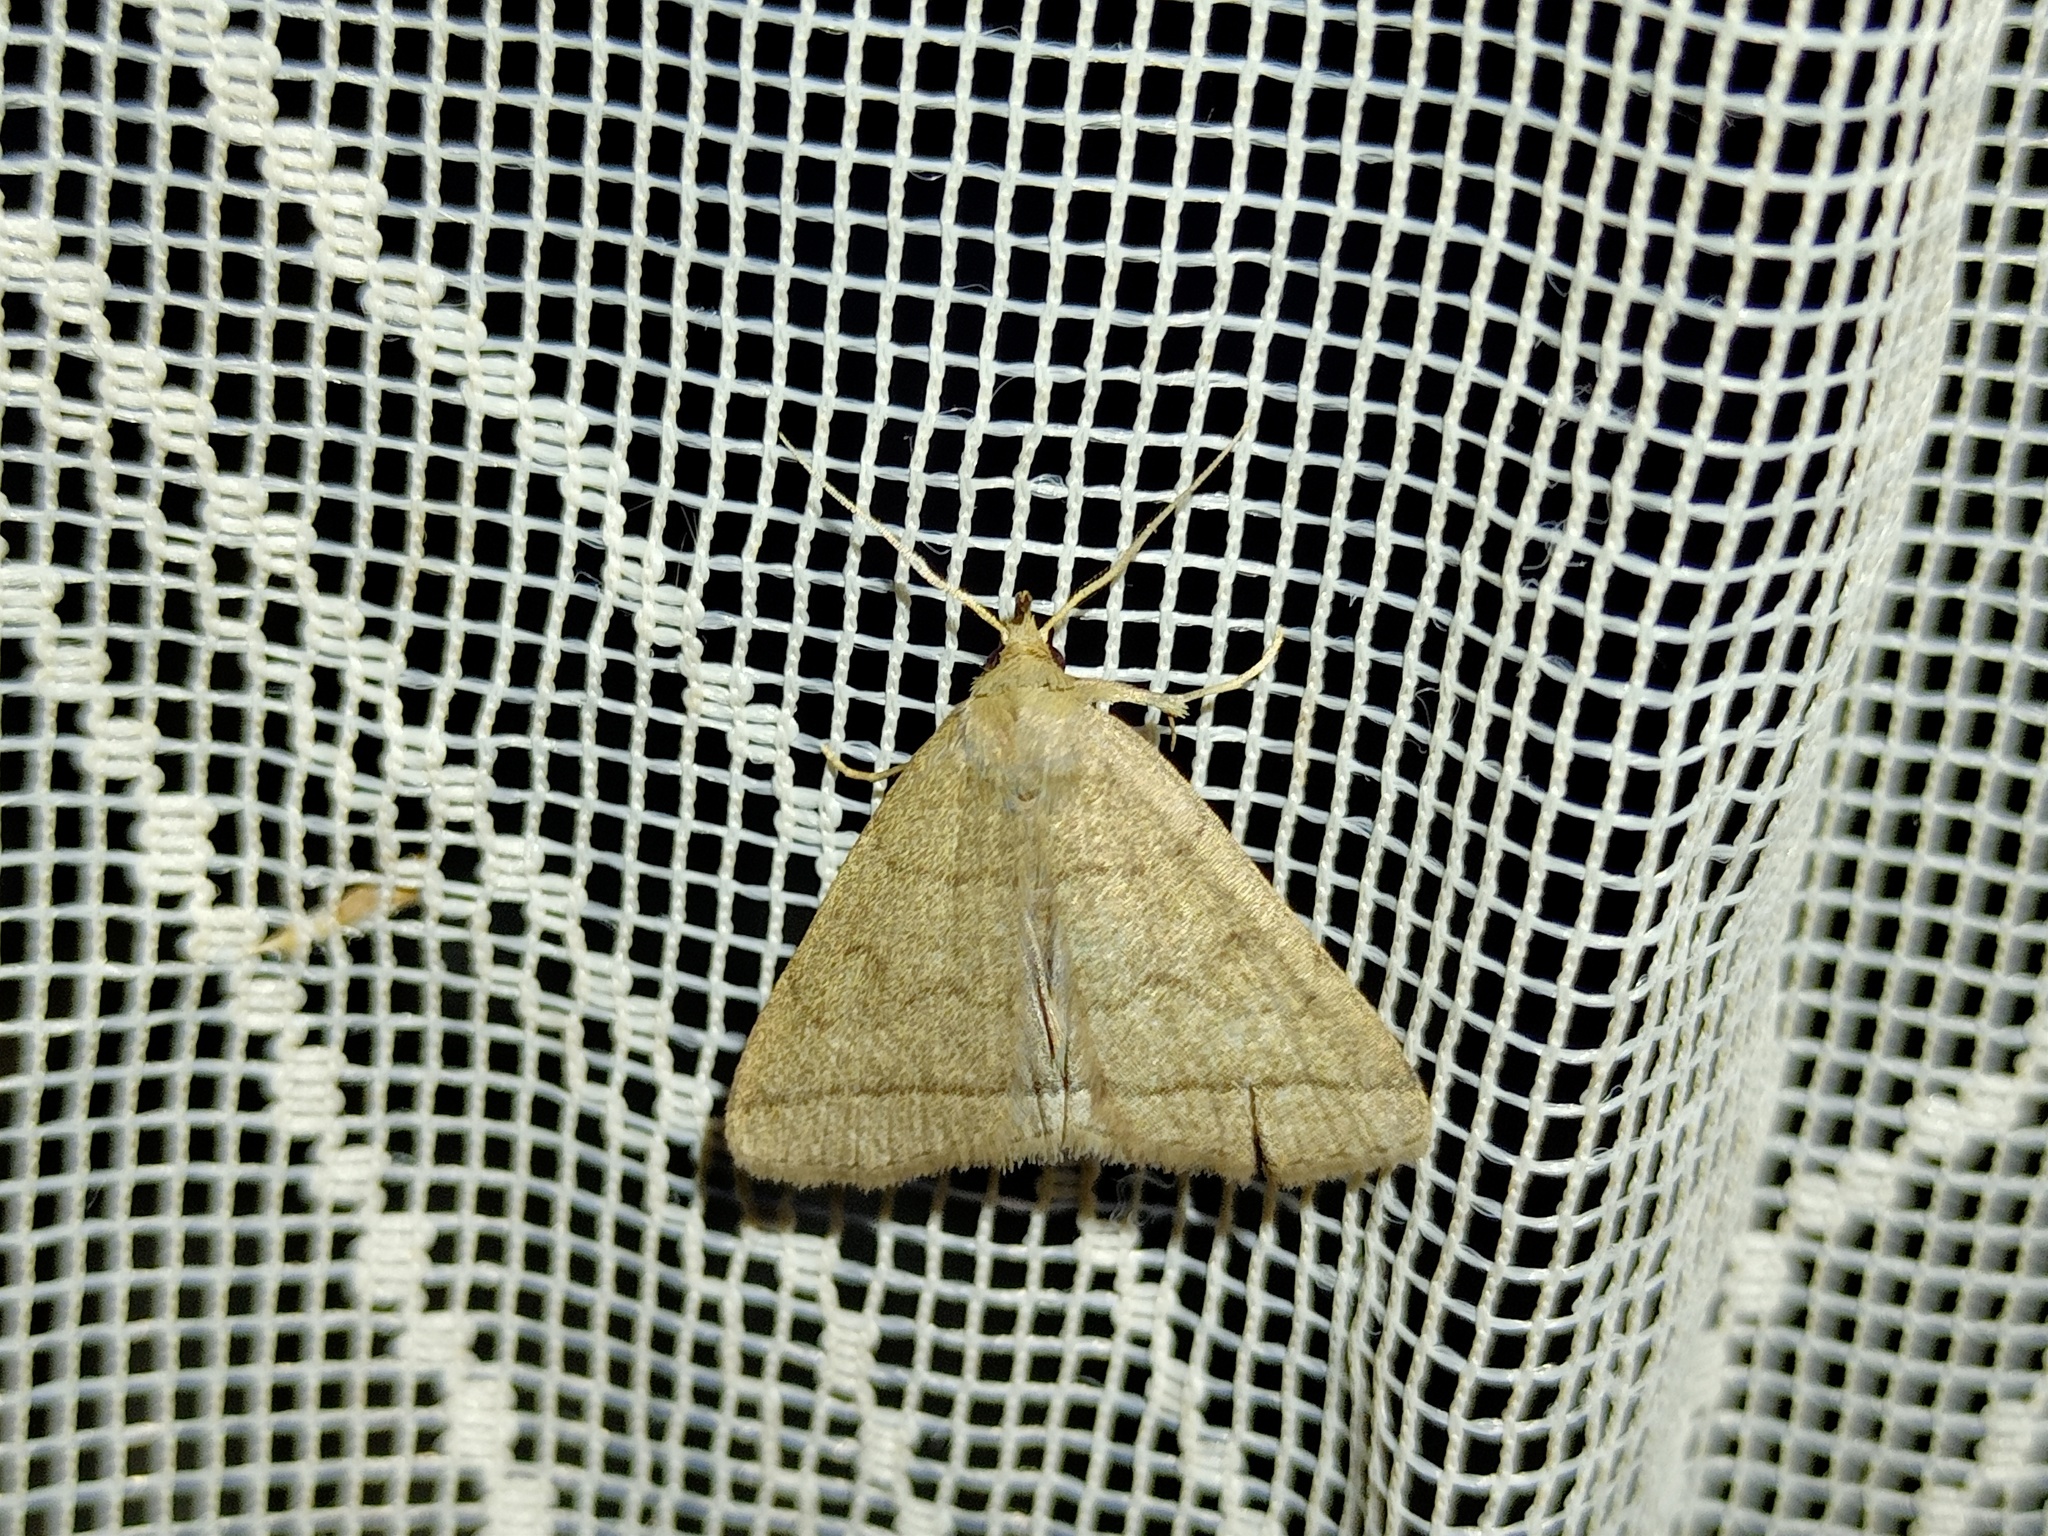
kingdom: Animalia
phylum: Arthropoda
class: Insecta
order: Lepidoptera
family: Erebidae
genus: Herminia
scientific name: Herminia tarsipennalis
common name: Fan-foot
